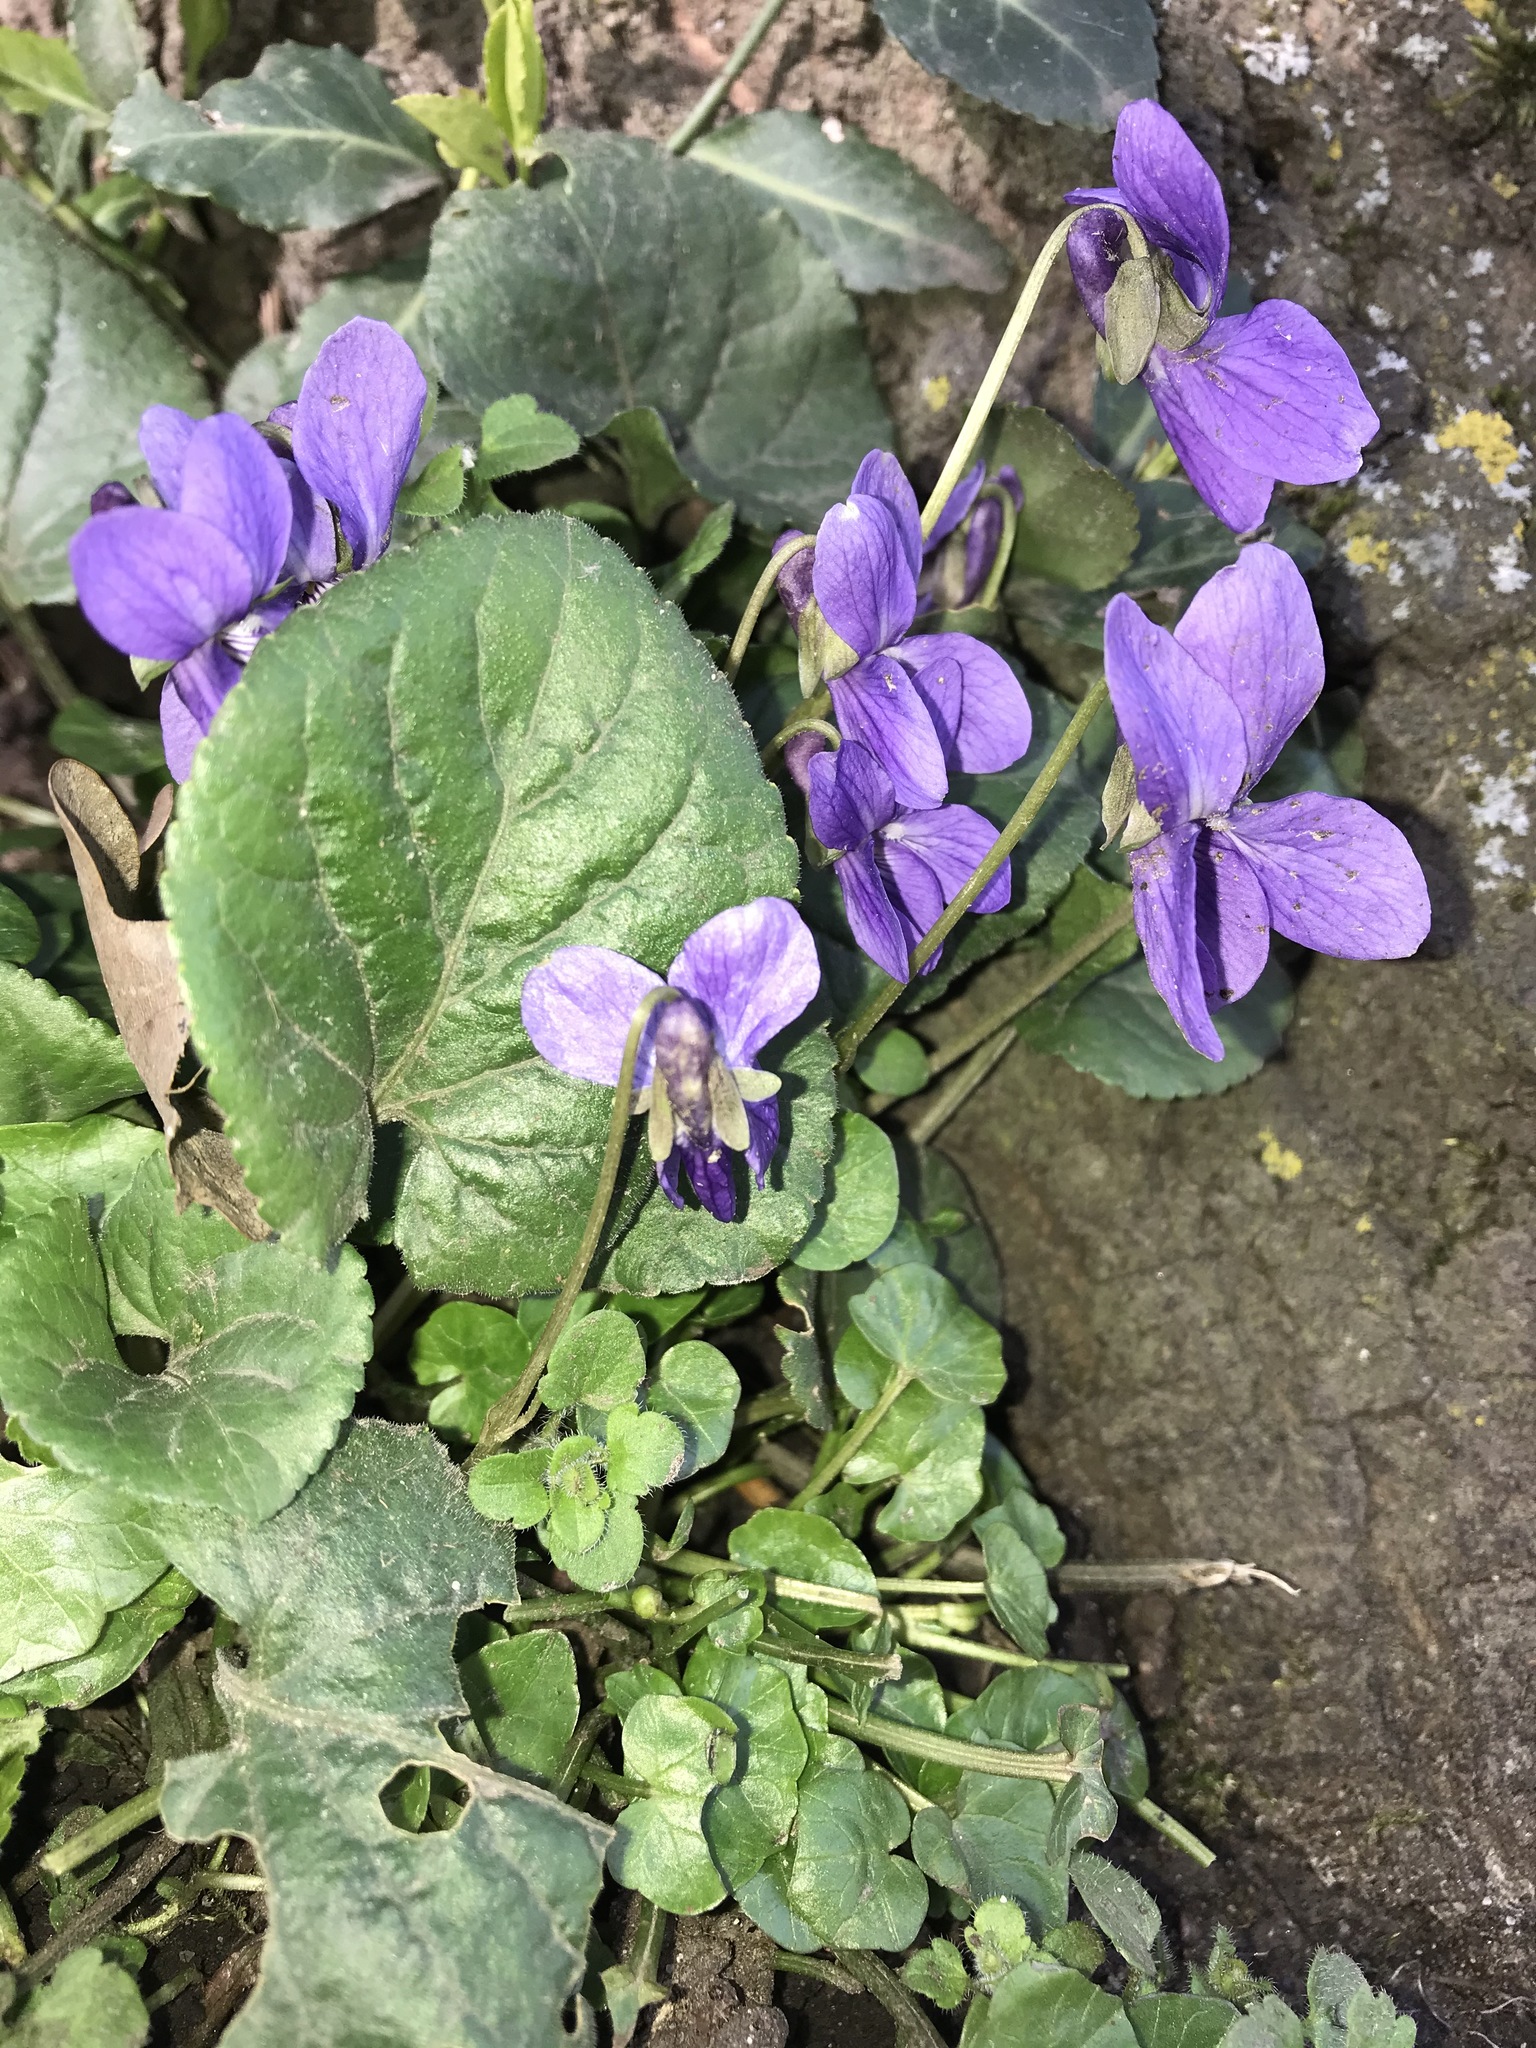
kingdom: Plantae
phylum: Tracheophyta
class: Magnoliopsida
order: Malpighiales
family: Violaceae
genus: Viola
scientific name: Viola odorata
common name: Sweet violet
